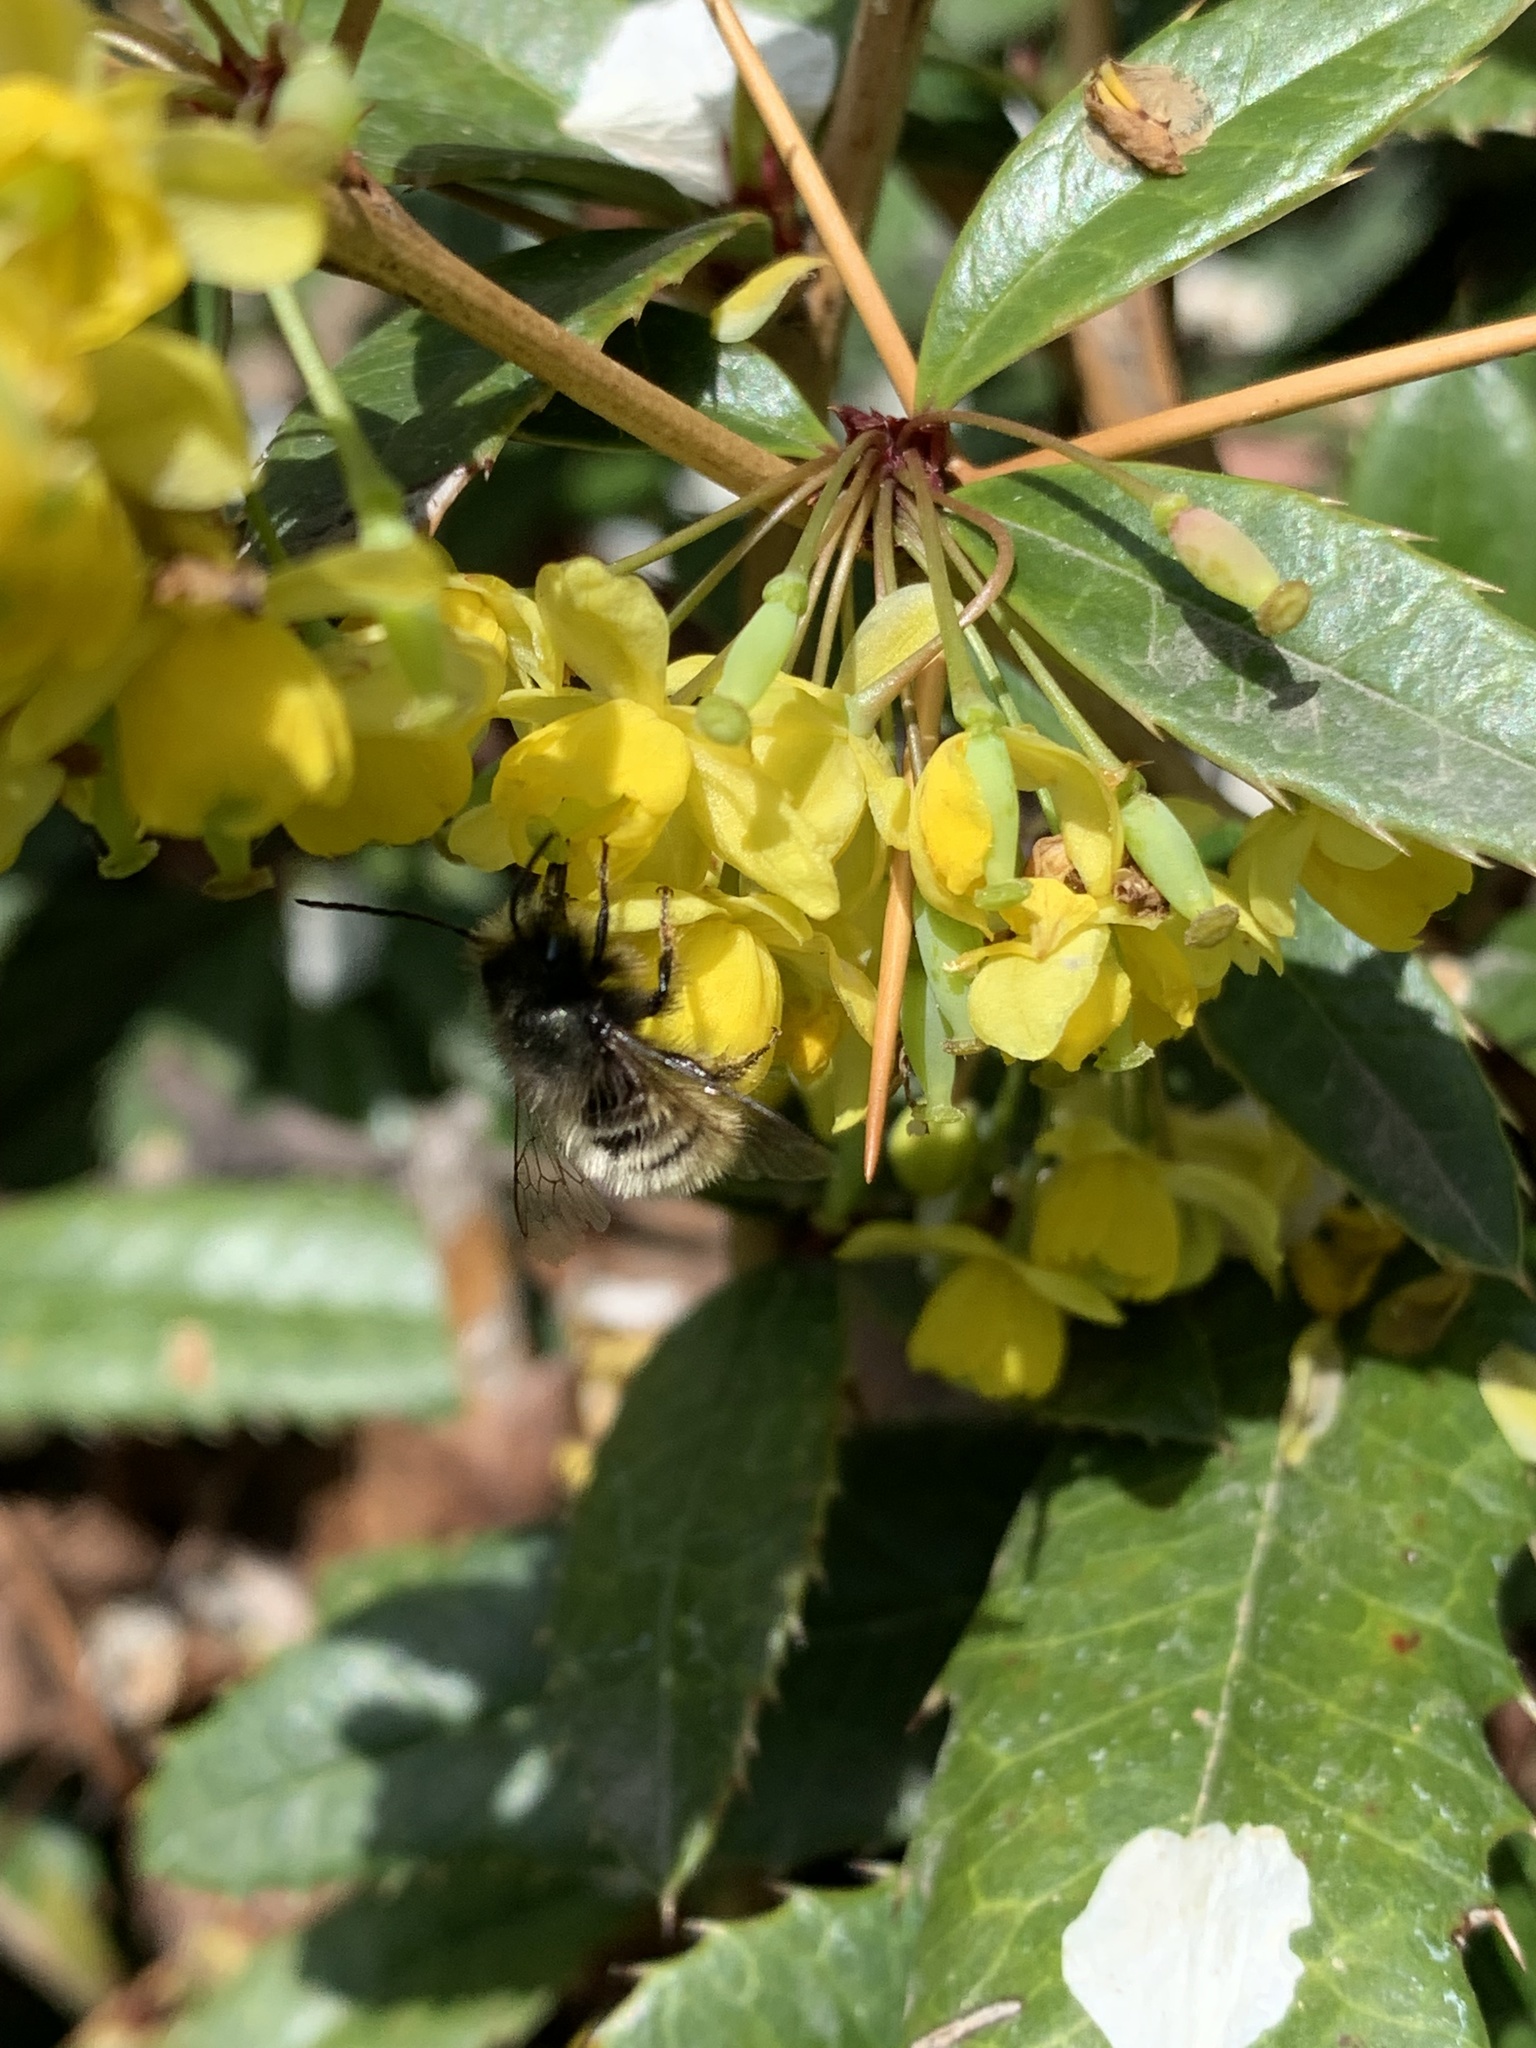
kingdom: Animalia
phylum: Arthropoda
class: Insecta
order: Hymenoptera
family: Megachilidae
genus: Osmia
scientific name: Osmia cornuta
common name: Mason bee
